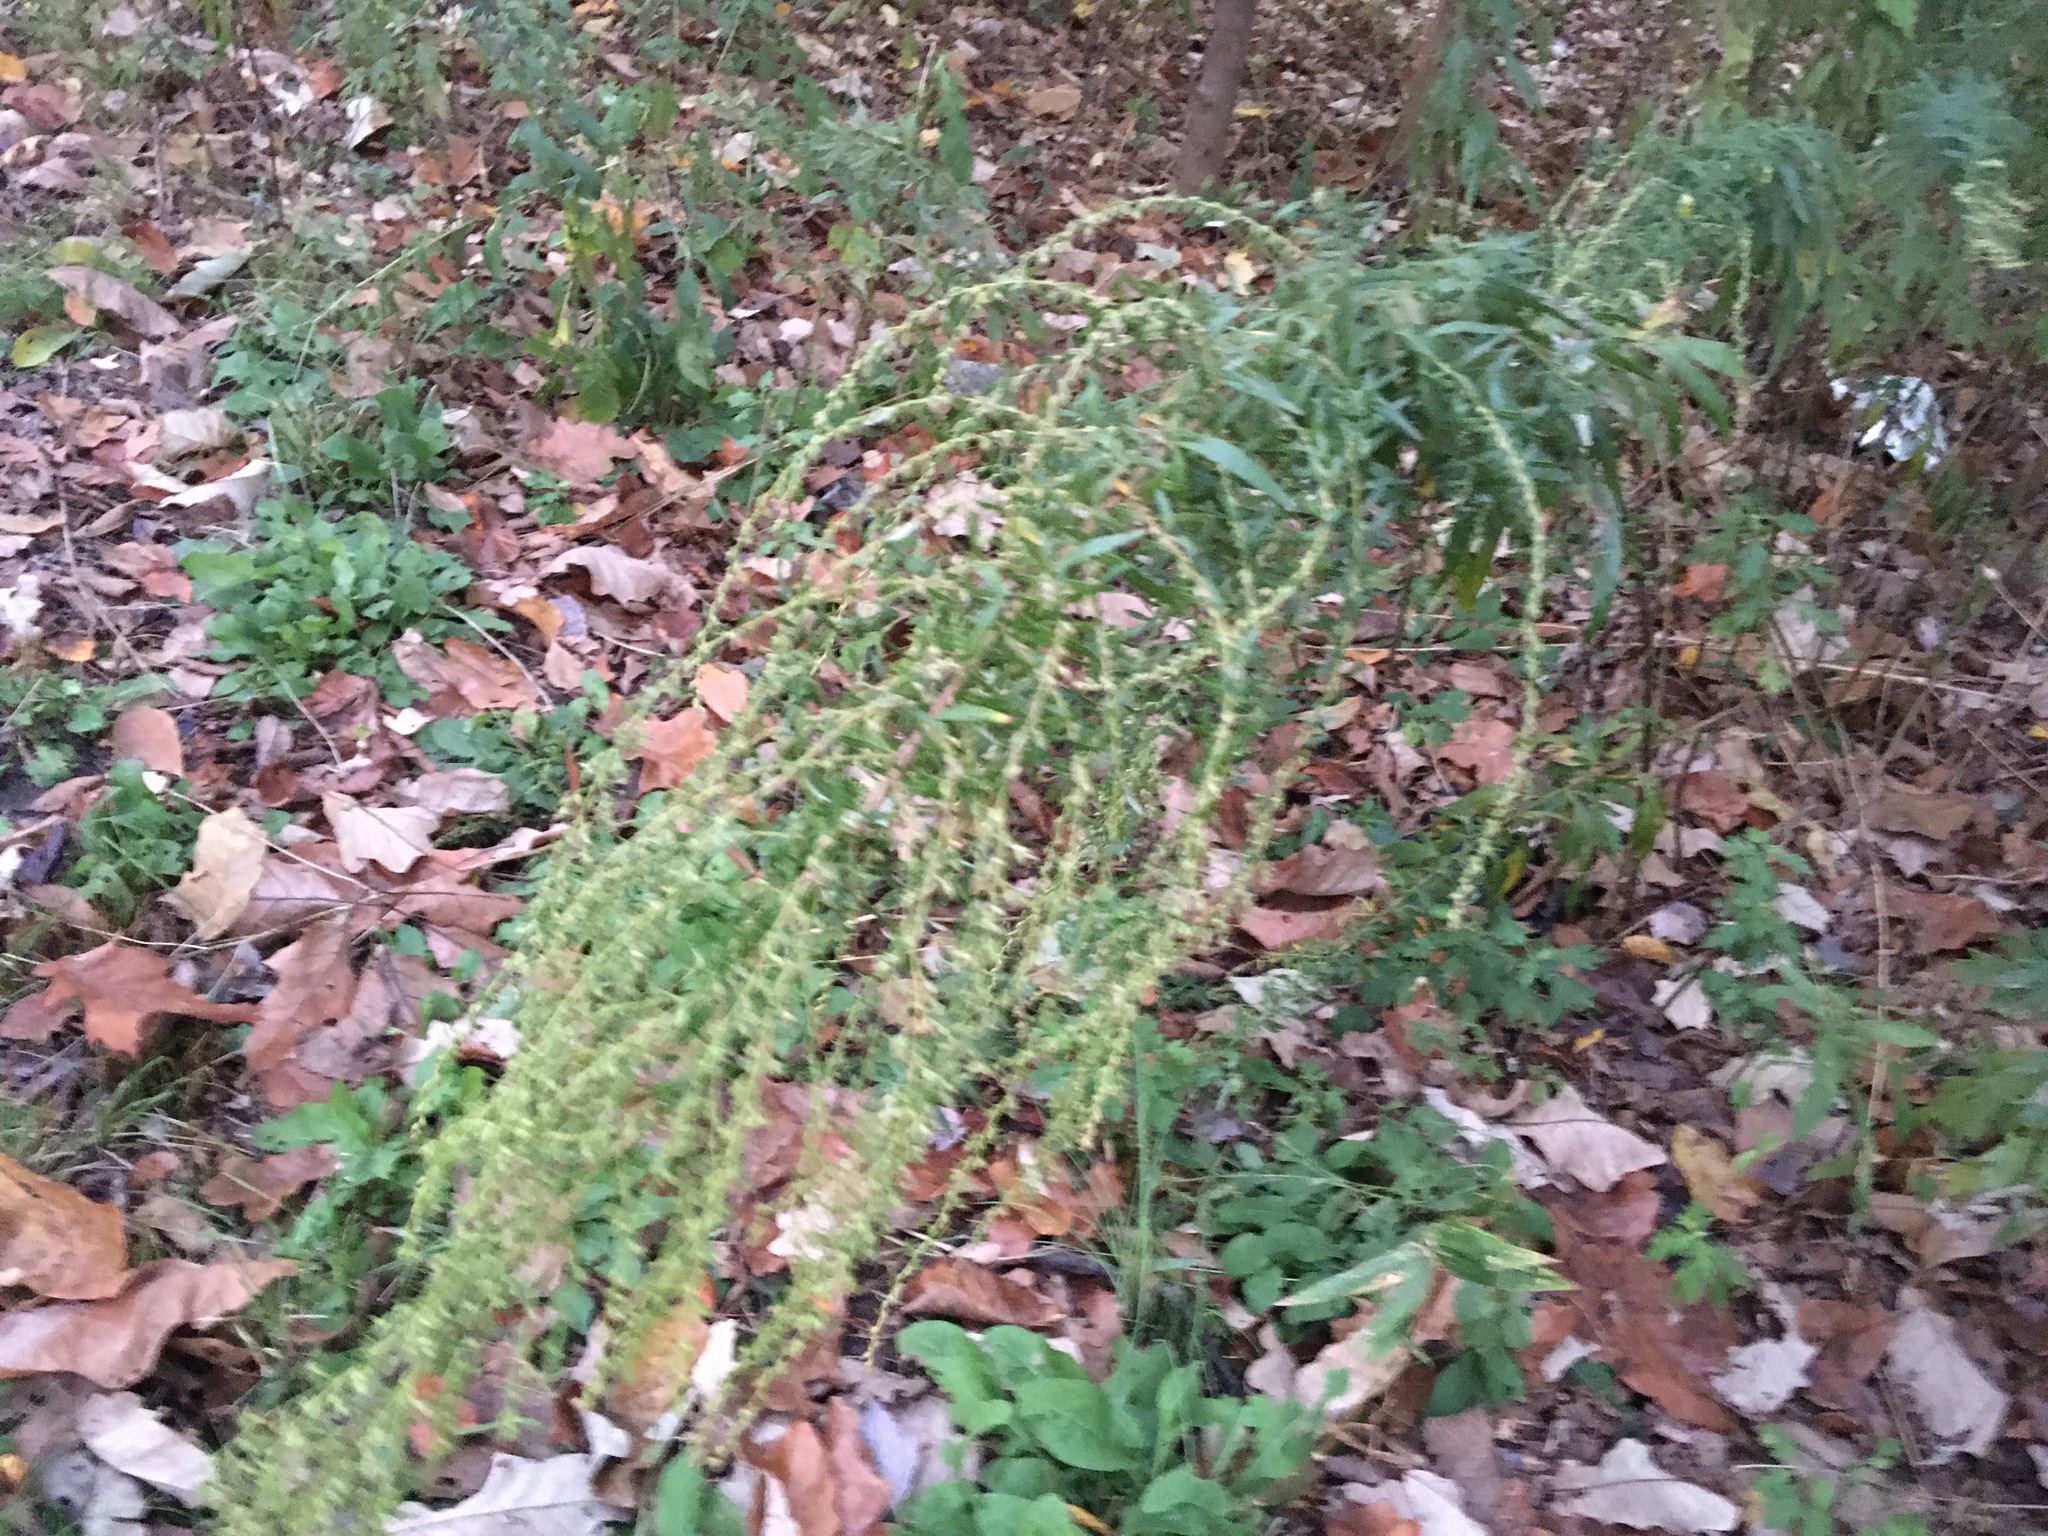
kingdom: Plantae
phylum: Tracheophyta
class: Magnoliopsida
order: Asterales
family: Asteraceae
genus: Artemisia
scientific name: Artemisia vulgaris
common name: Mugwort
